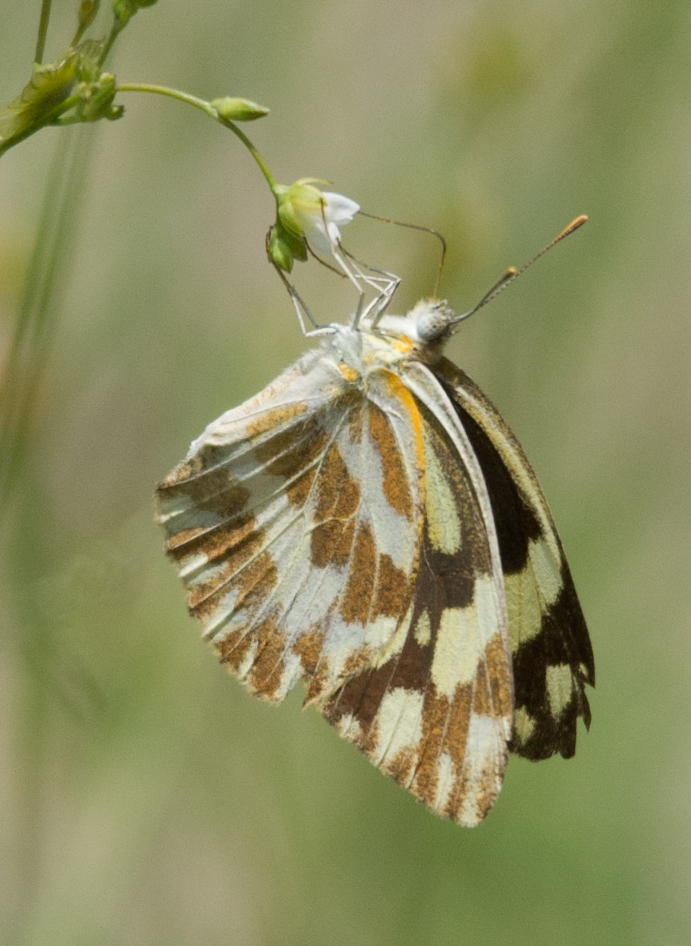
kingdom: Animalia
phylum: Arthropoda
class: Insecta
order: Lepidoptera
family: Pieridae
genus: Pinacopteryx
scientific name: Pinacopteryx eriphia
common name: Zebra white
